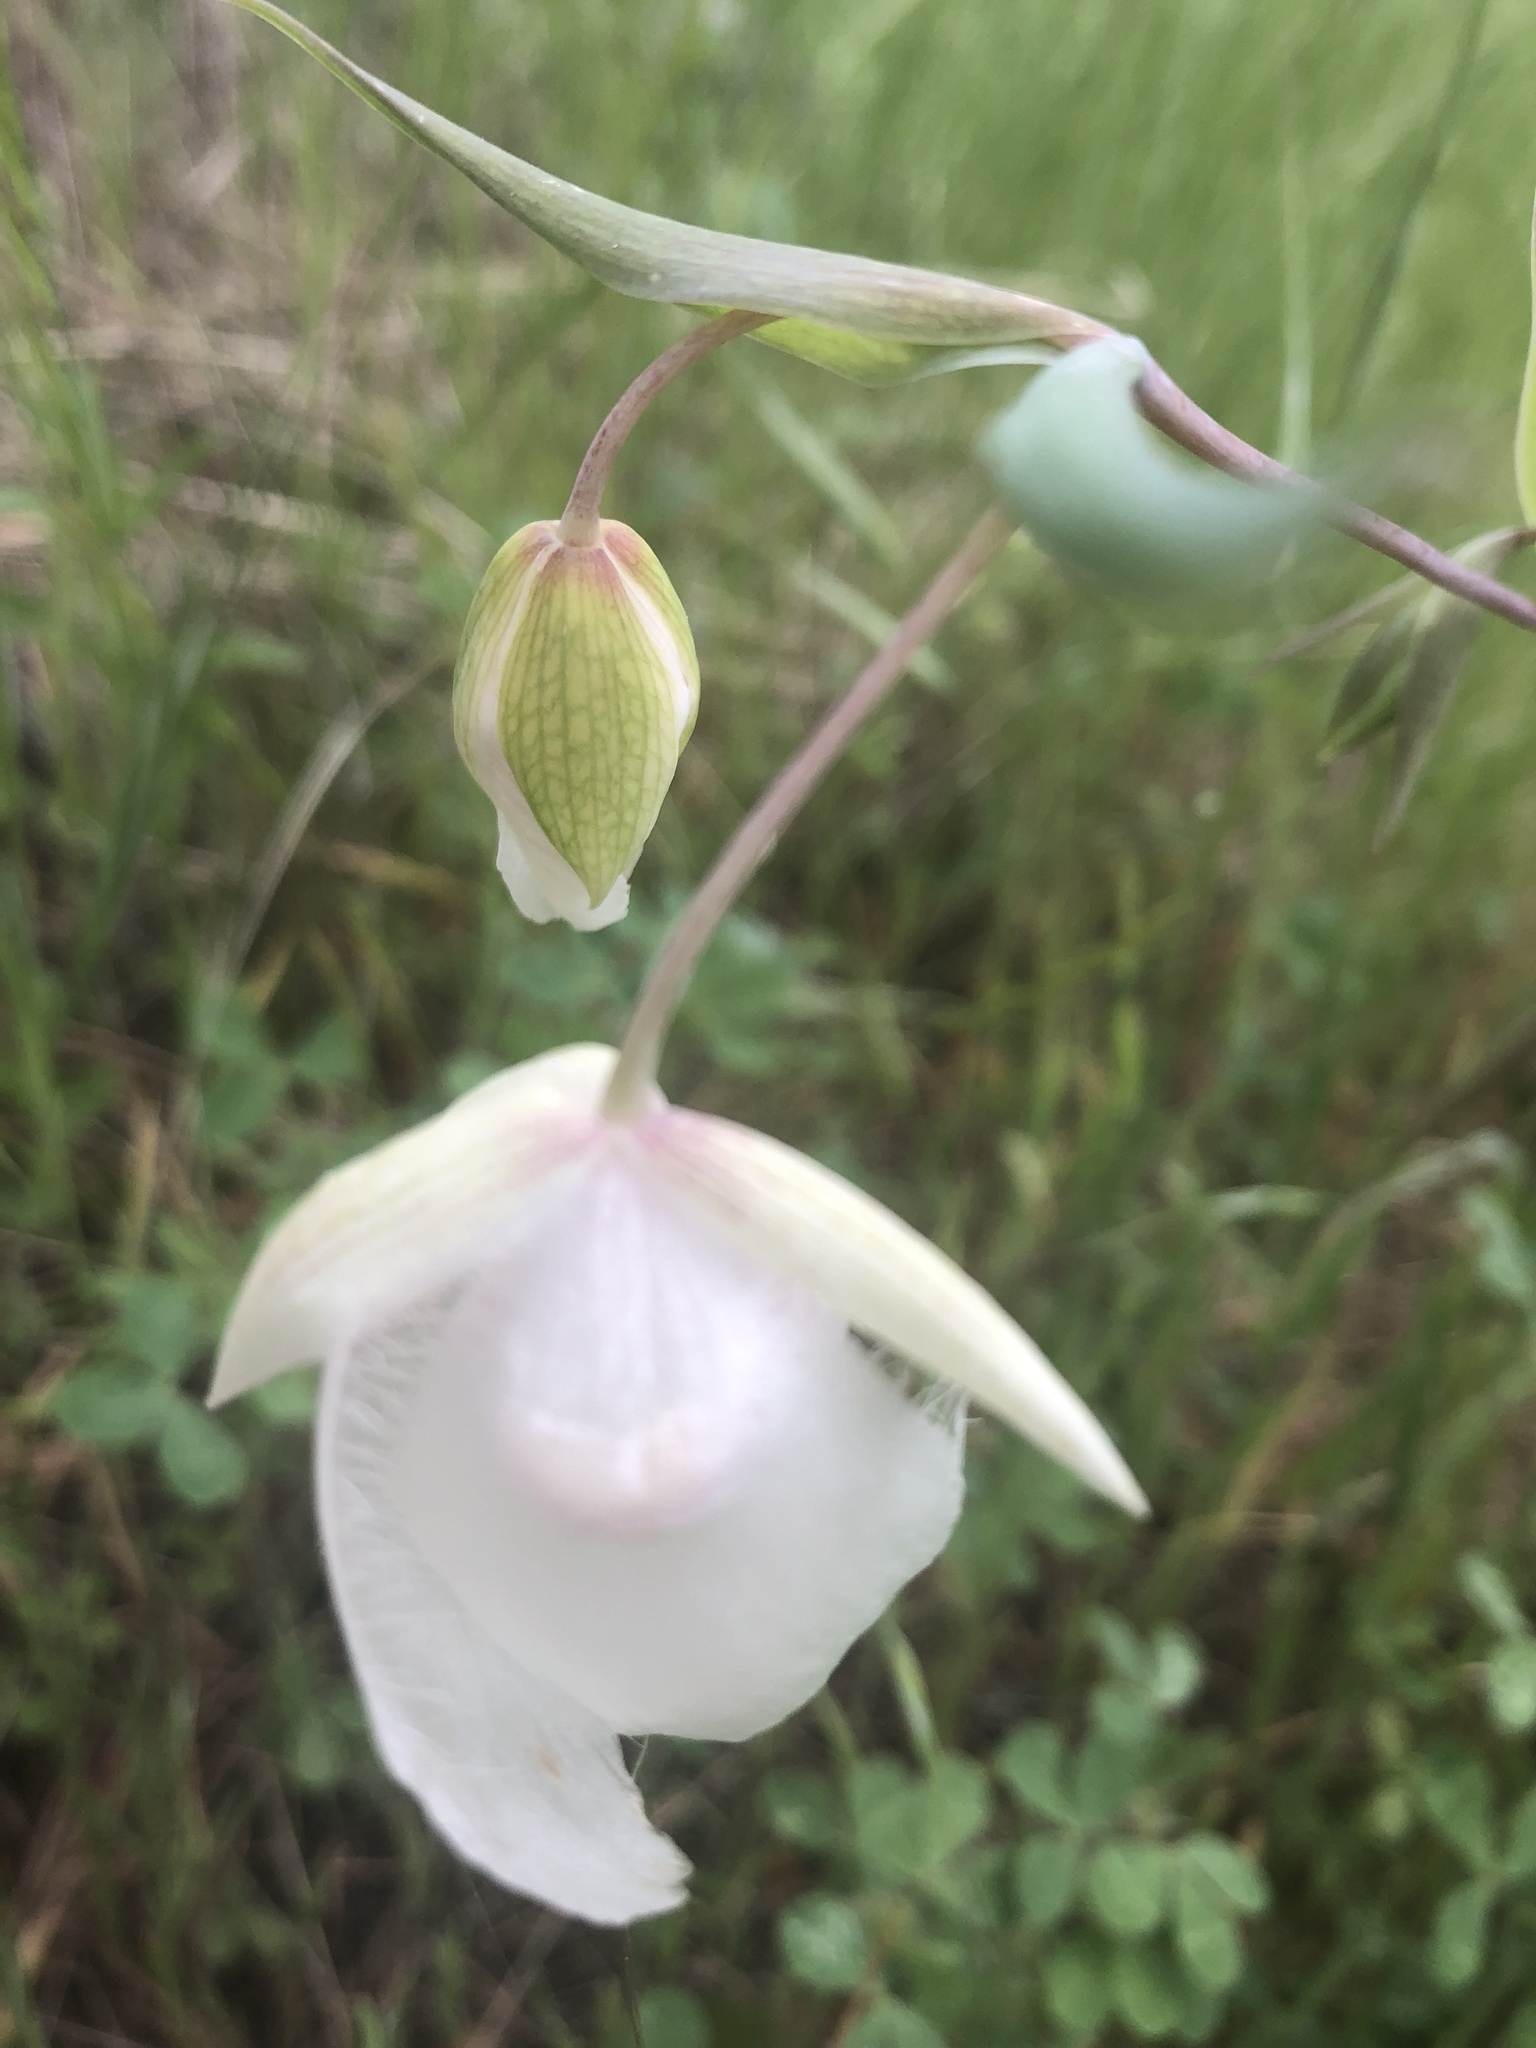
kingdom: Plantae
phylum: Tracheophyta
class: Liliopsida
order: Liliales
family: Liliaceae
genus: Calochortus
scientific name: Calochortus albus
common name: Fairy-lantern
